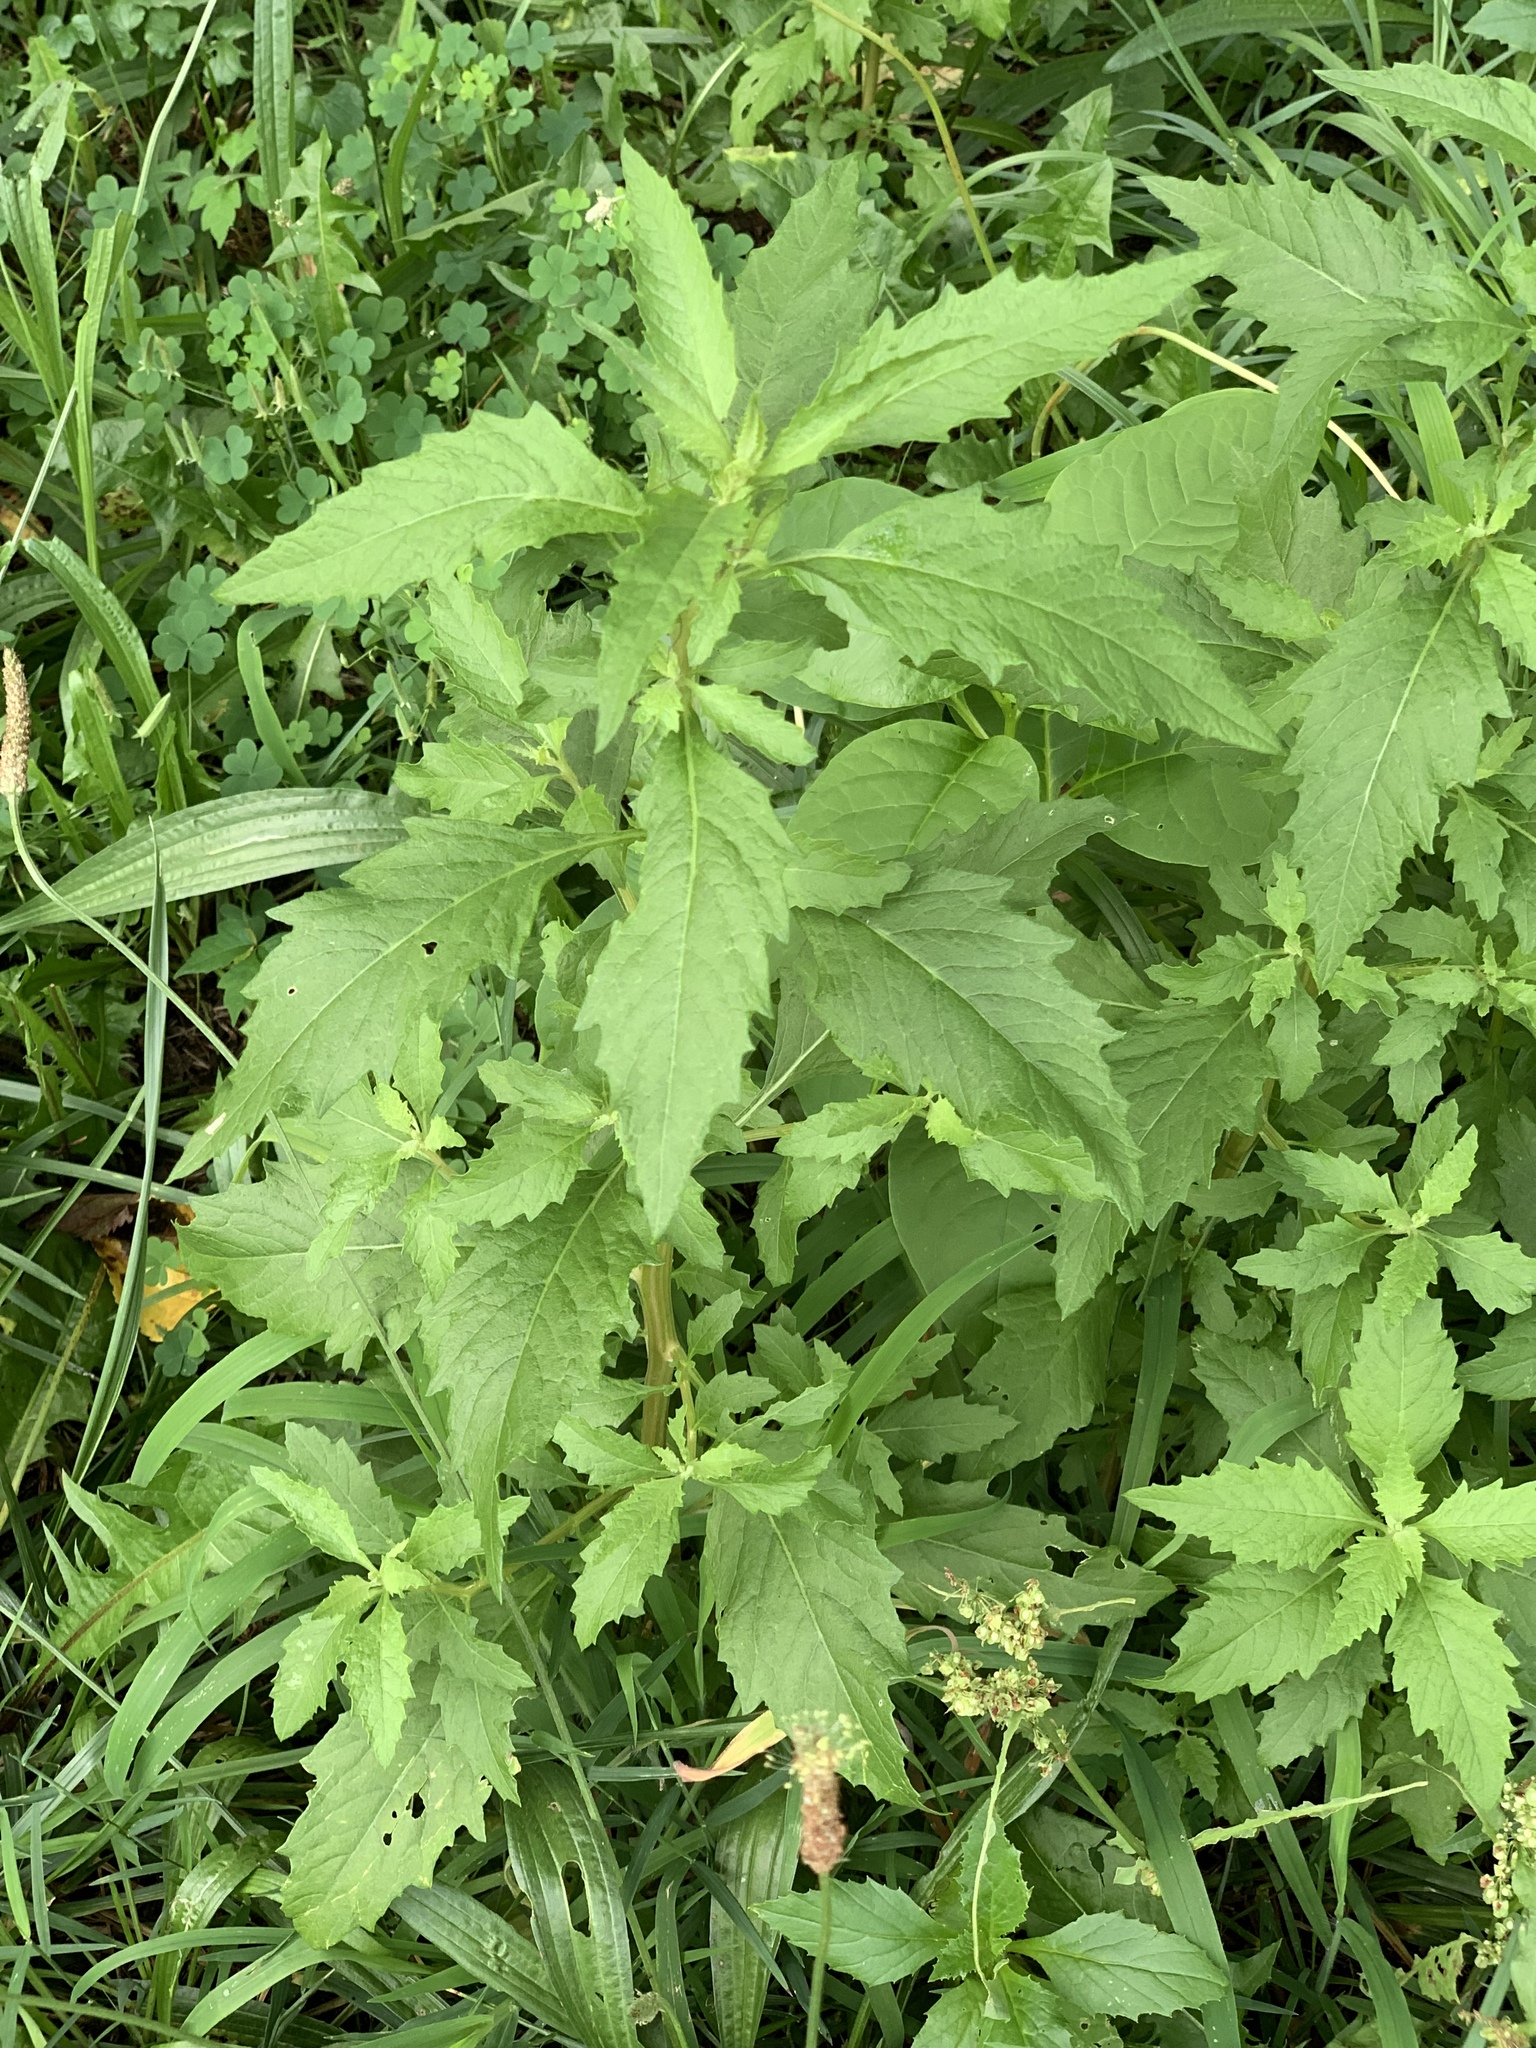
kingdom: Plantae
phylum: Tracheophyta
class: Magnoliopsida
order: Caryophyllales
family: Amaranthaceae
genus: Dysphania
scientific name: Dysphania ambrosioides
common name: Wormseed
